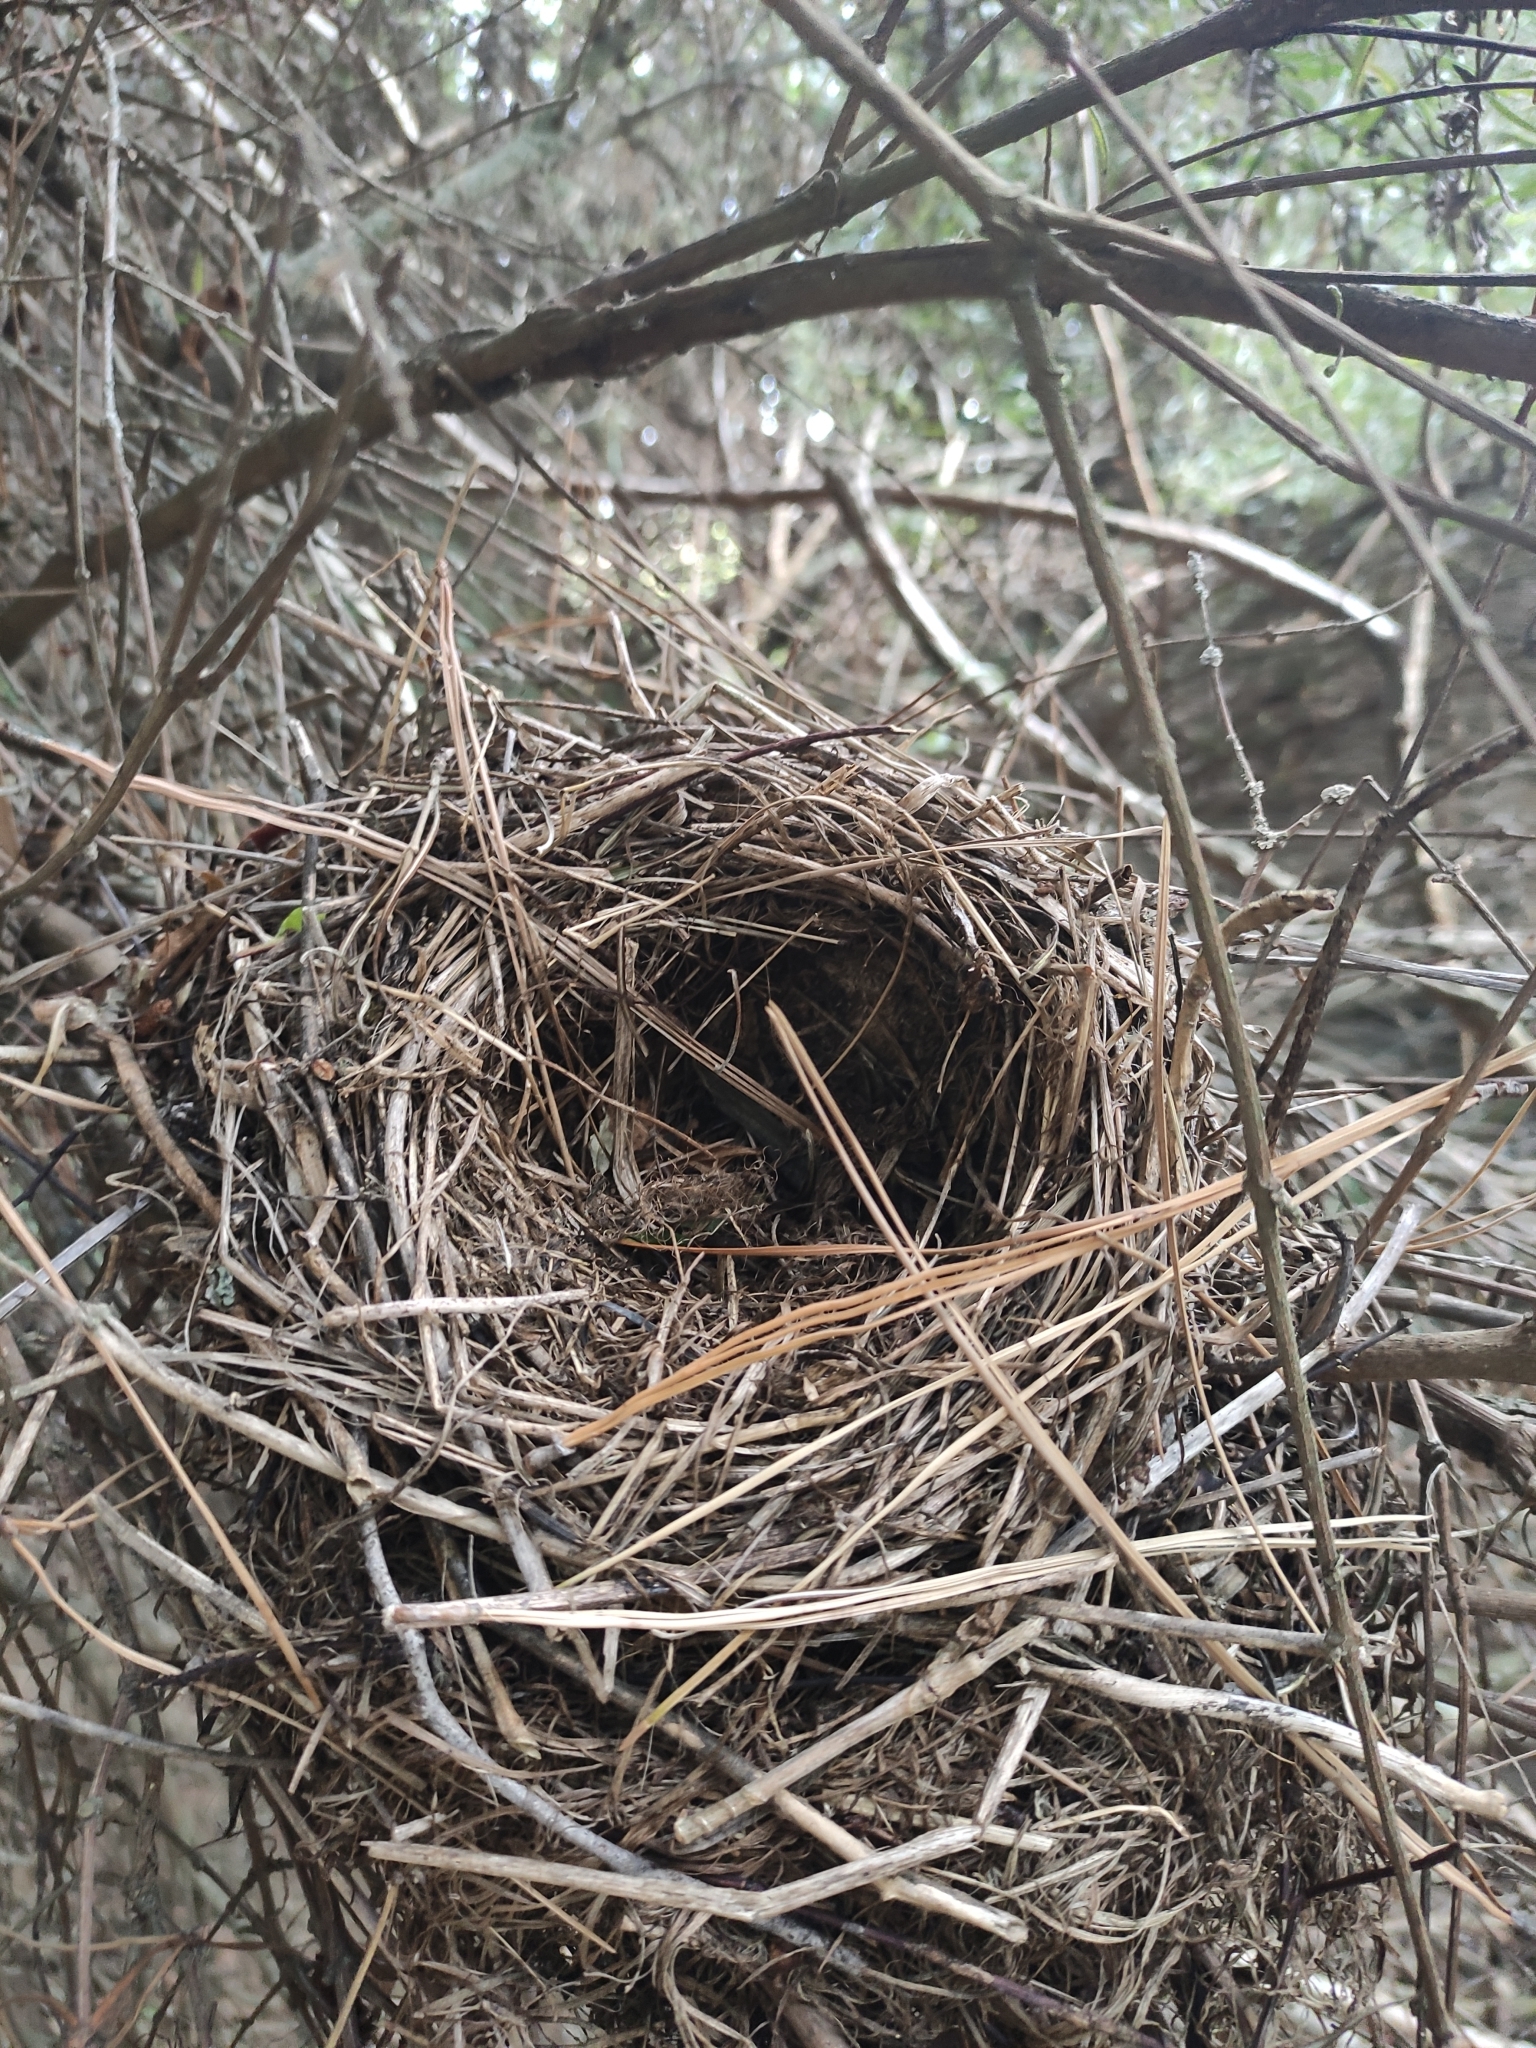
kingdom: Animalia
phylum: Chordata
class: Aves
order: Passeriformes
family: Turdidae
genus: Turdus
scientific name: Turdus merula
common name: Common blackbird
